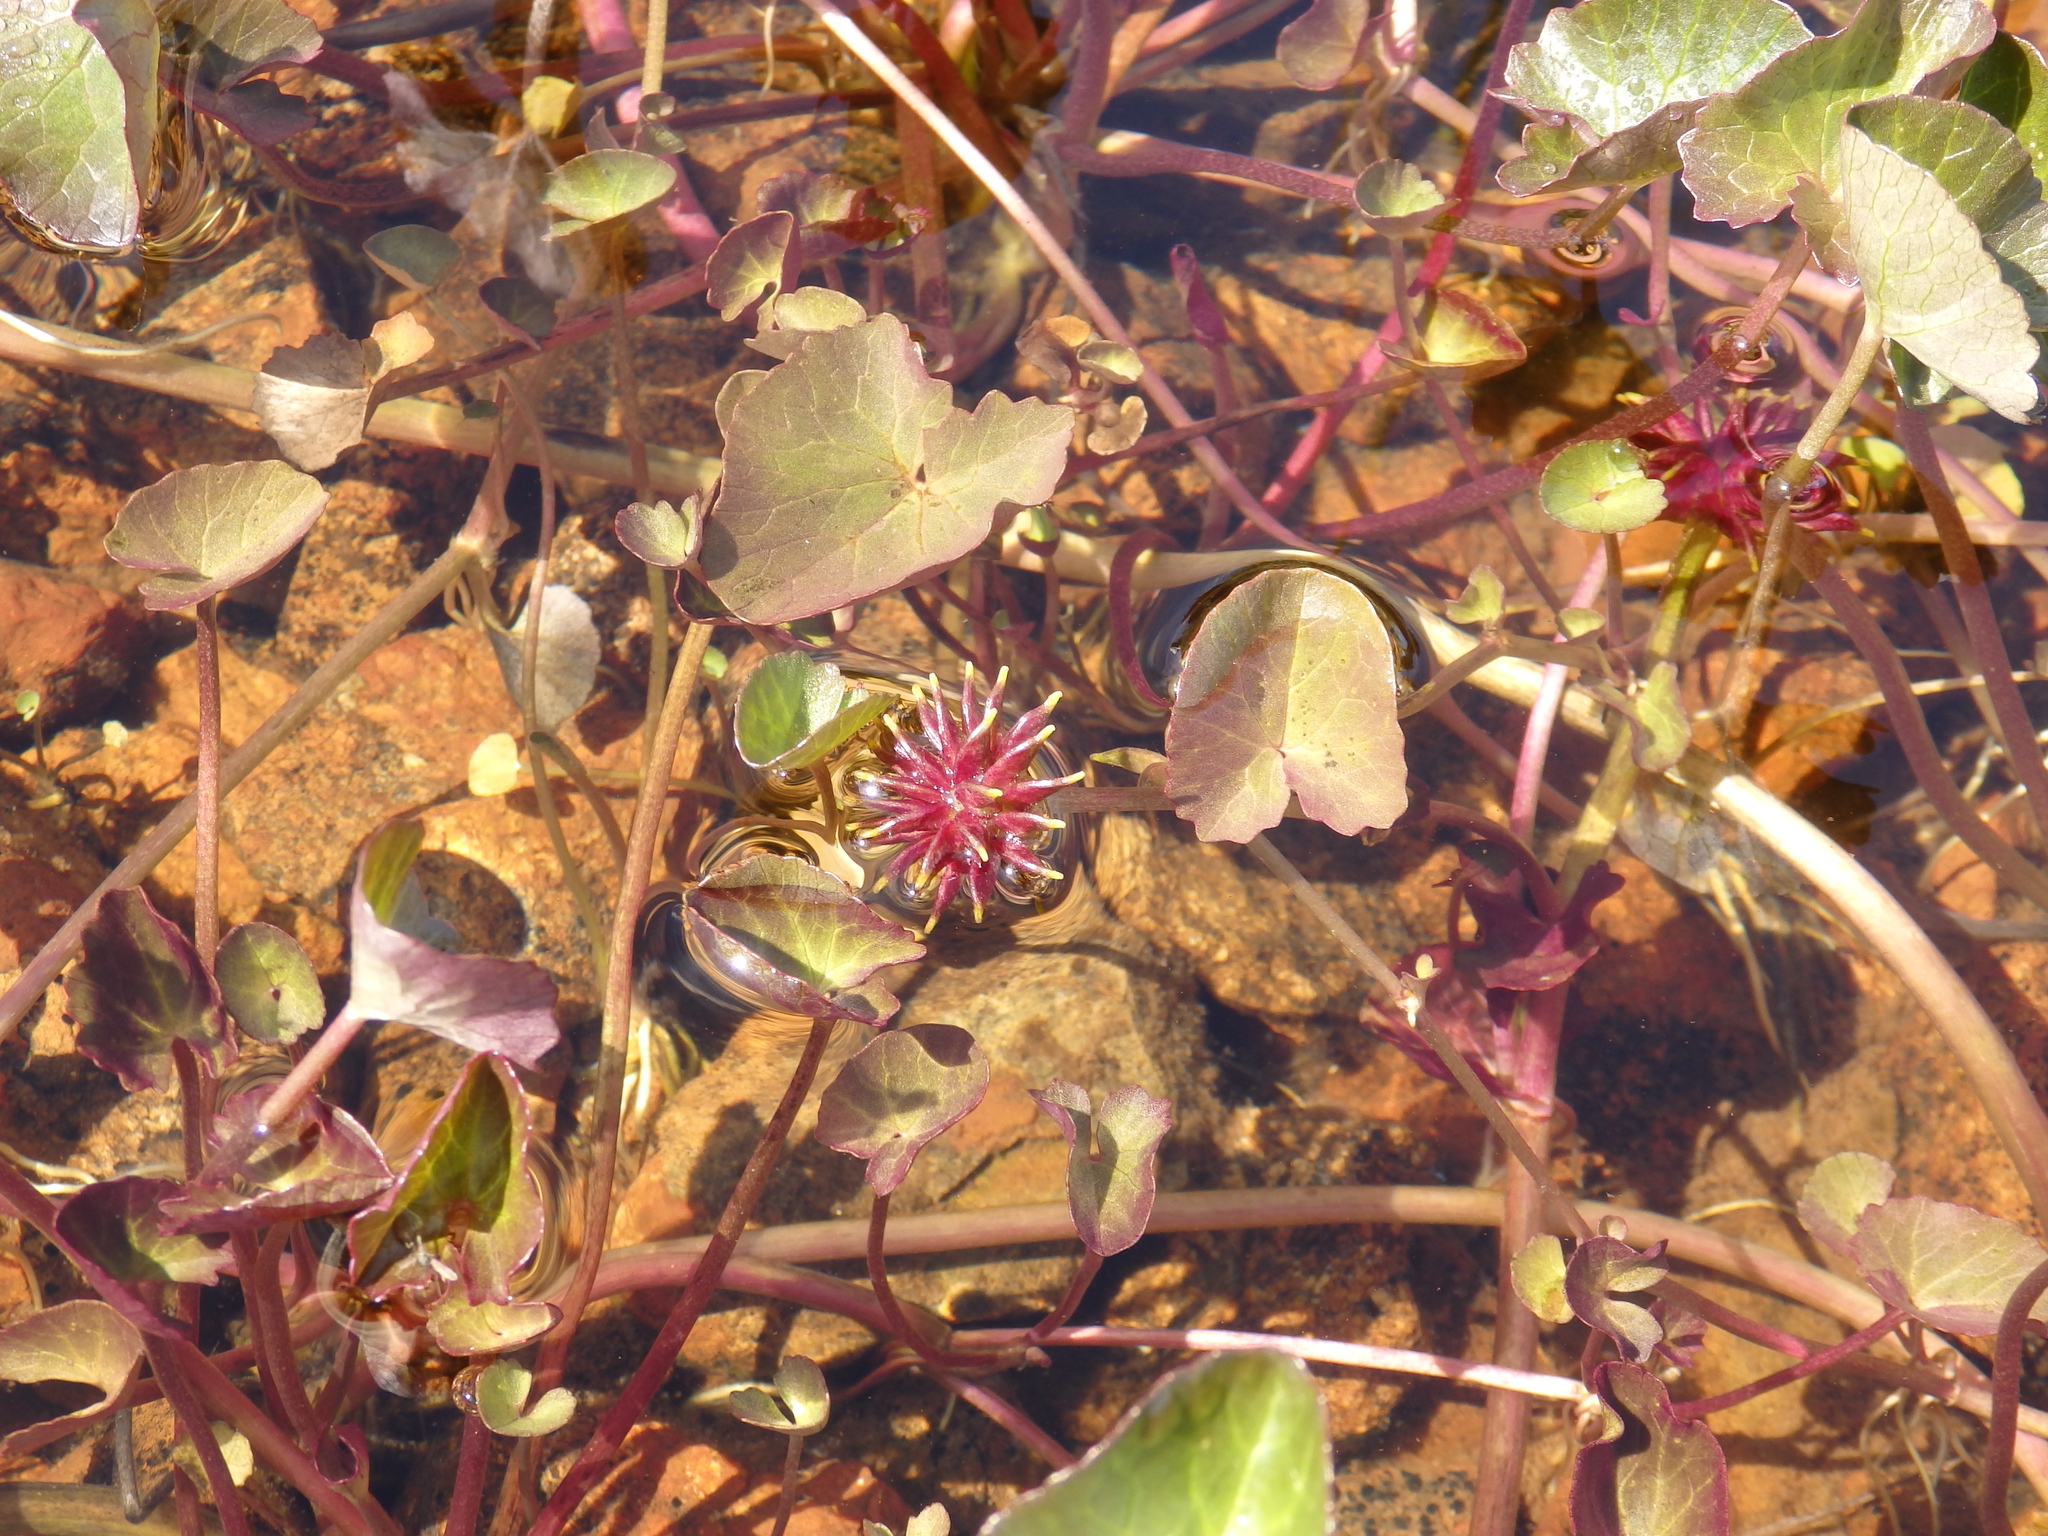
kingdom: Plantae
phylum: Tracheophyta
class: Magnoliopsida
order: Ranunculales
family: Ranunculaceae
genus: Caltha
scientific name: Caltha palustris
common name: Marsh marigold
